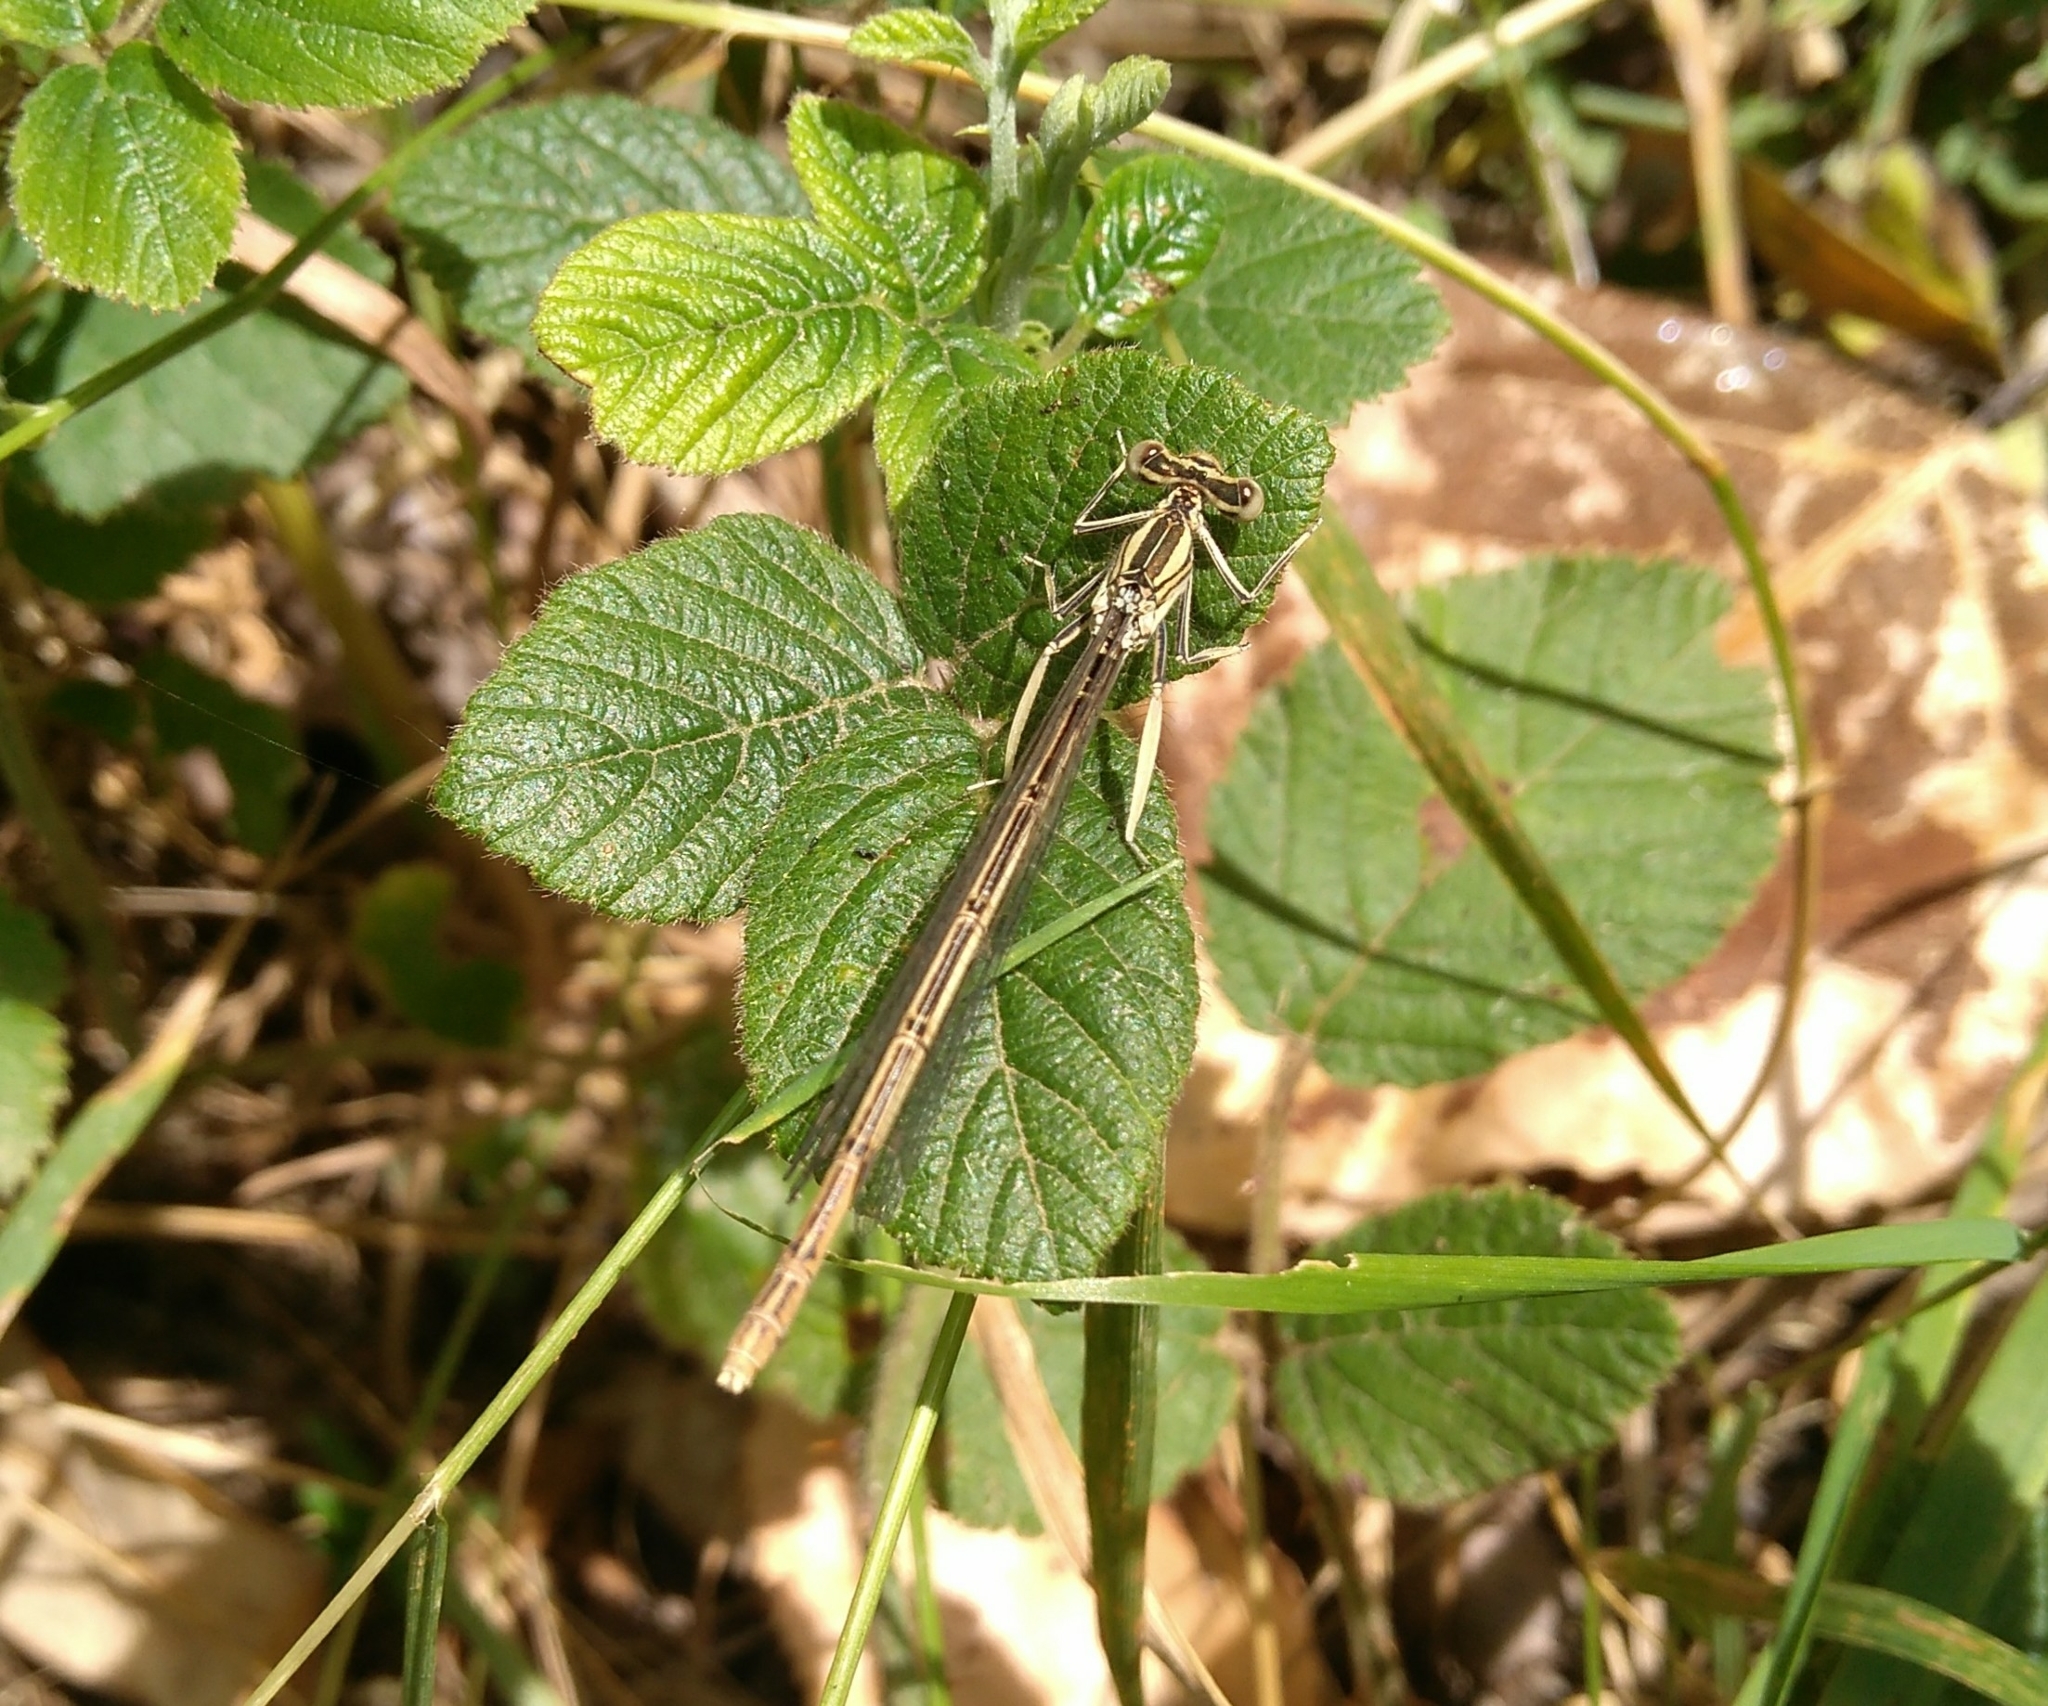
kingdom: Animalia
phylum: Arthropoda
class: Insecta
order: Odonata
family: Platycnemididae
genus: Platycnemis
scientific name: Platycnemis latipes
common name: White featherleg
